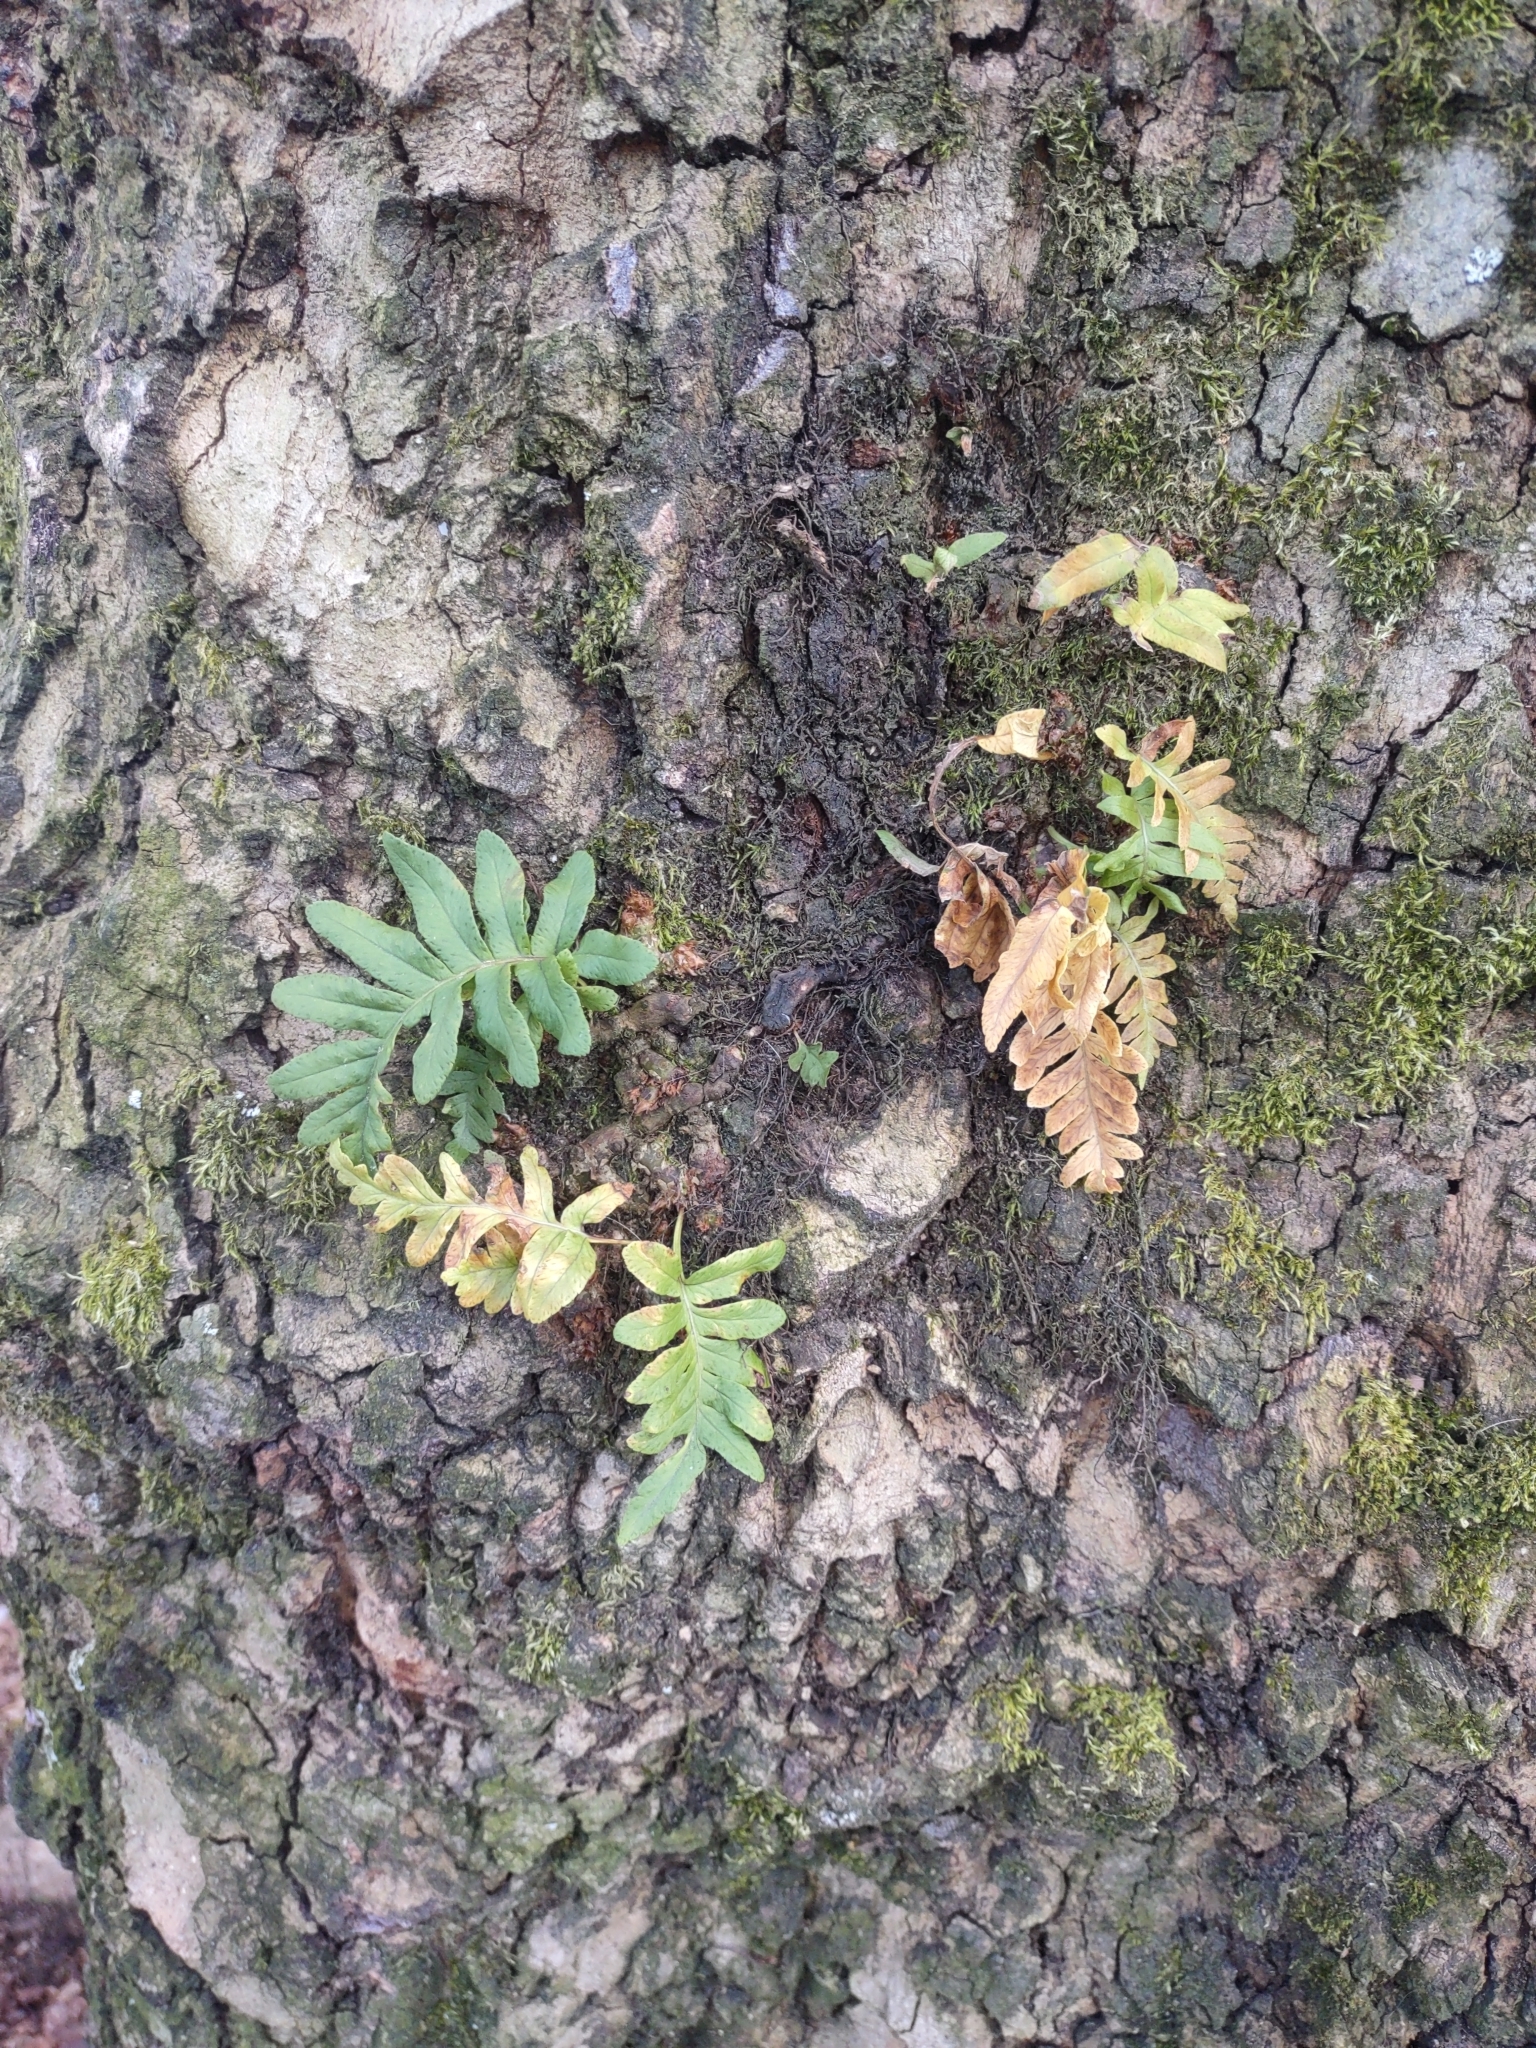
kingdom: Plantae
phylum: Tracheophyta
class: Polypodiopsida
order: Polypodiales
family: Polypodiaceae
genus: Polypodium
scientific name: Polypodium glycyrrhiza
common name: Licorice fern
